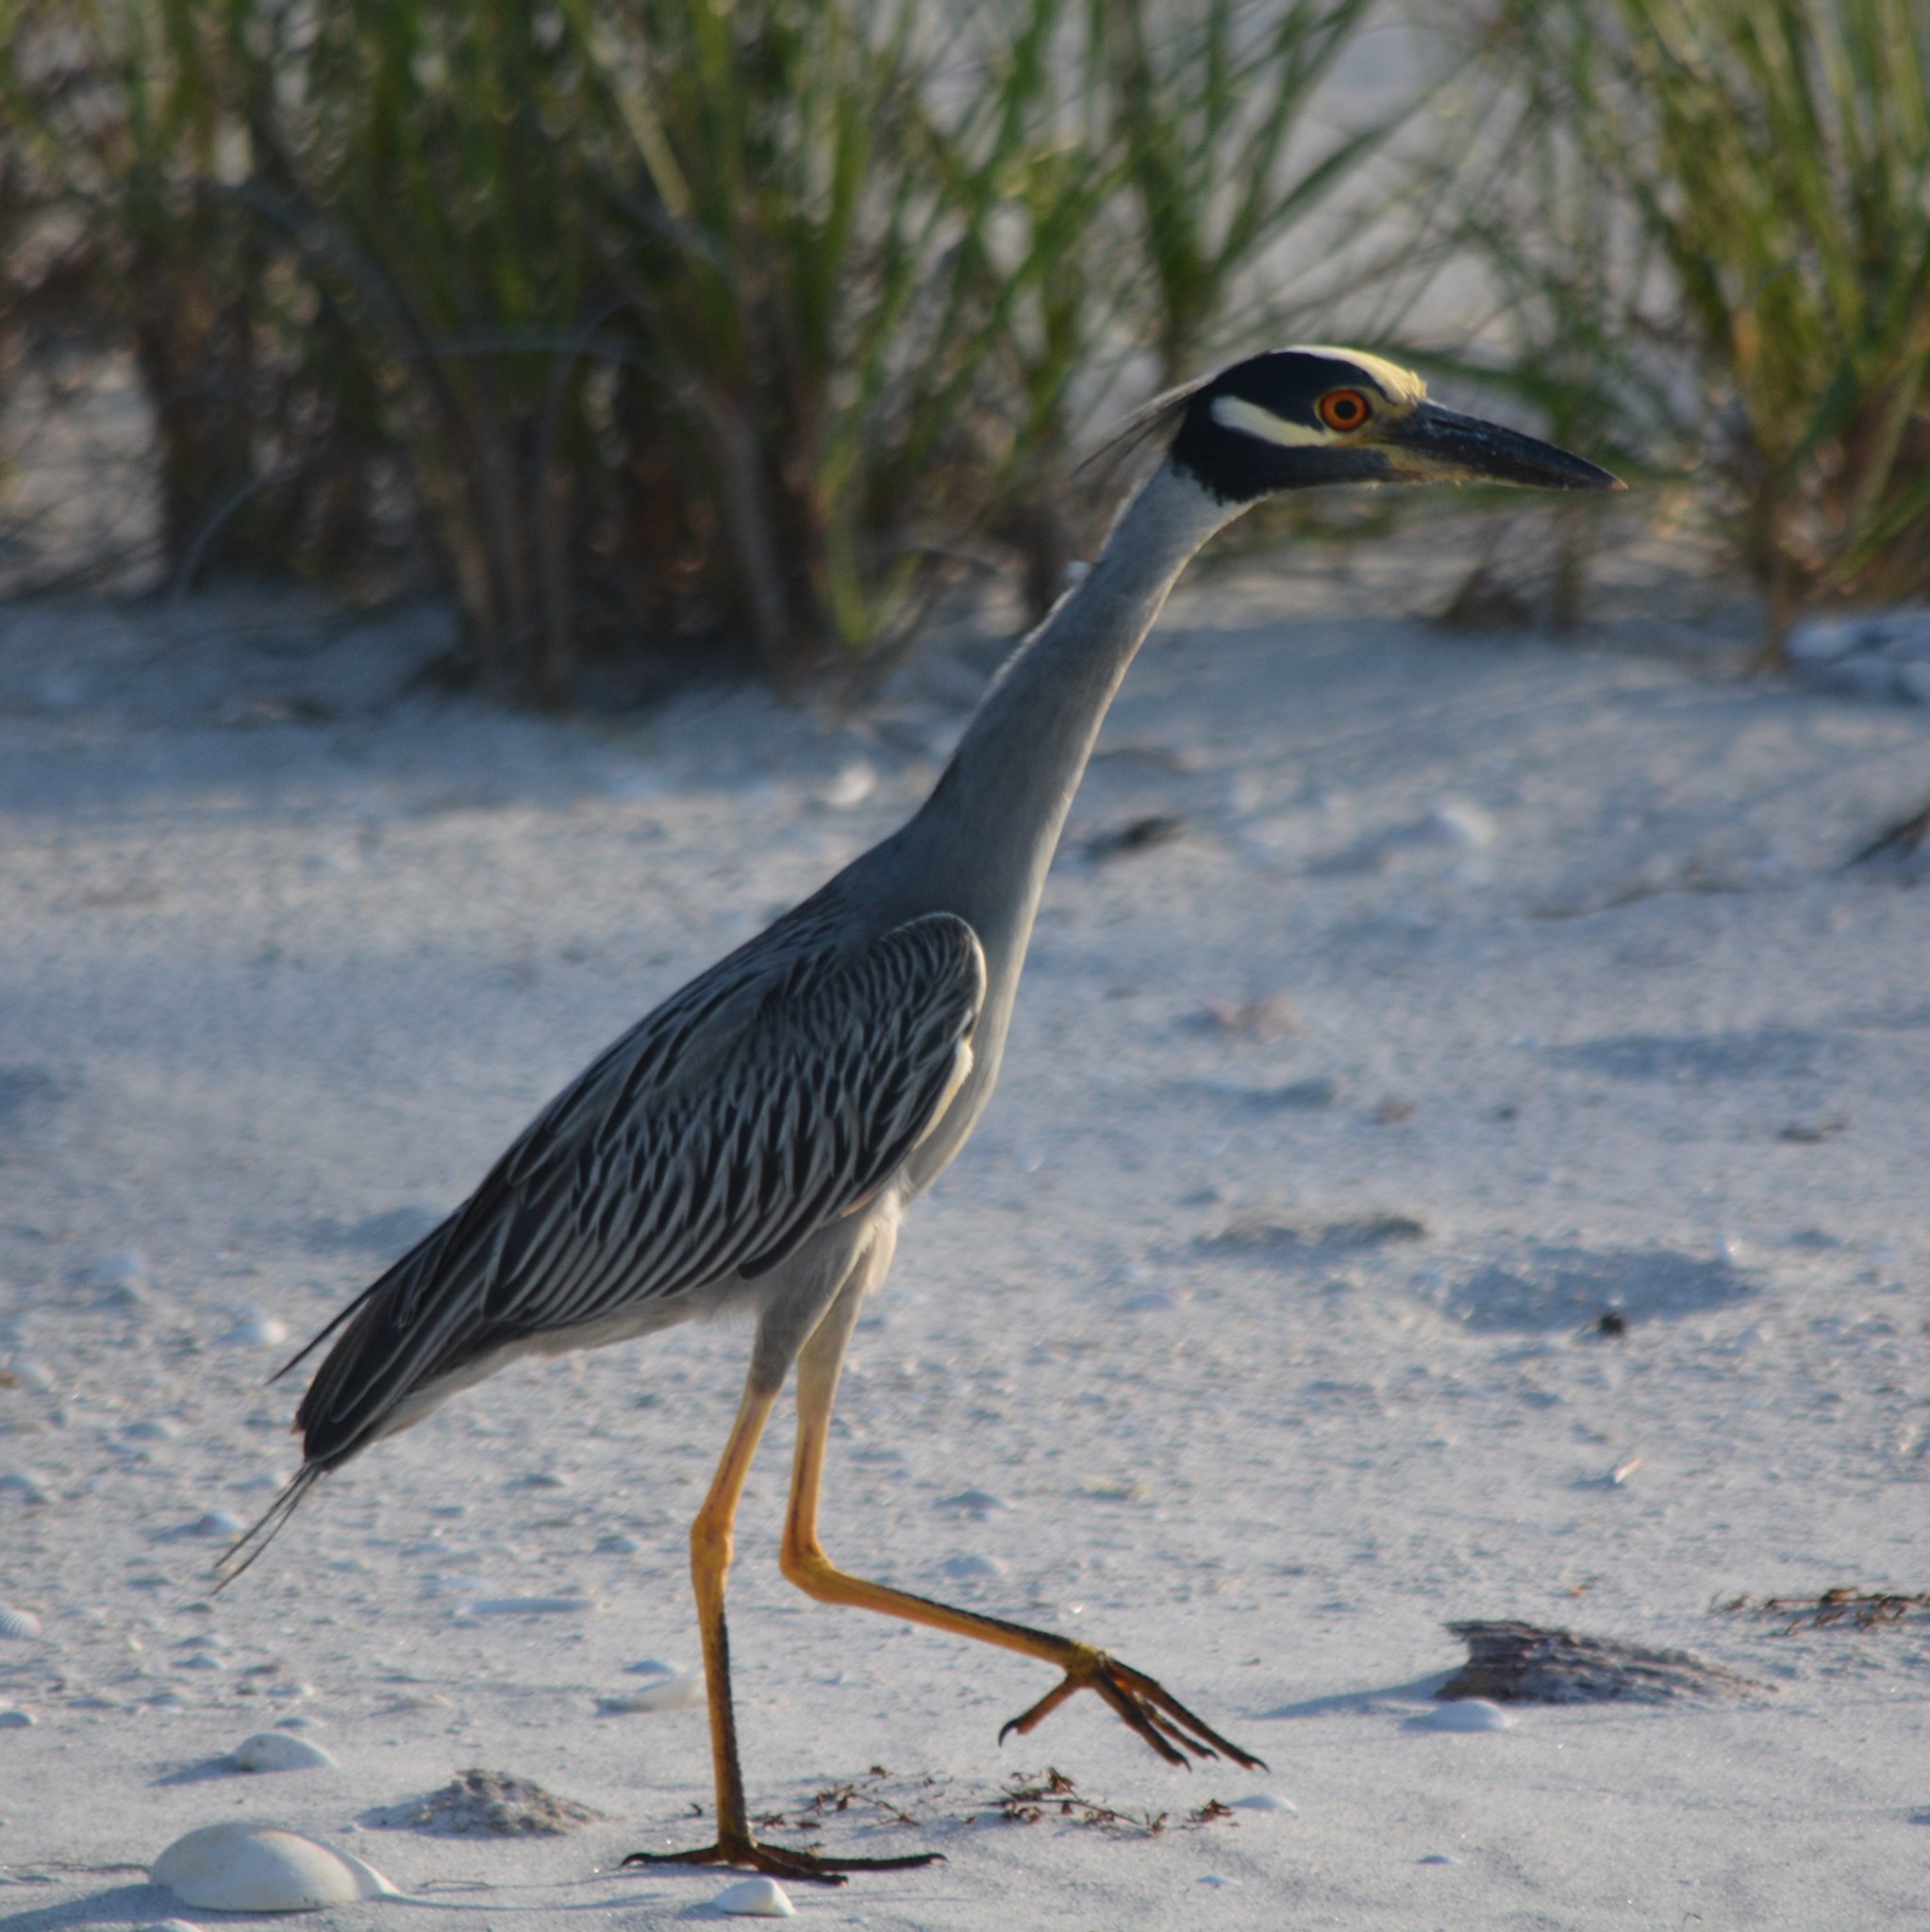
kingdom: Animalia
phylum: Chordata
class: Aves
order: Pelecaniformes
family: Ardeidae
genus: Nyctanassa
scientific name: Nyctanassa violacea
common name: Yellow-crowned night heron
